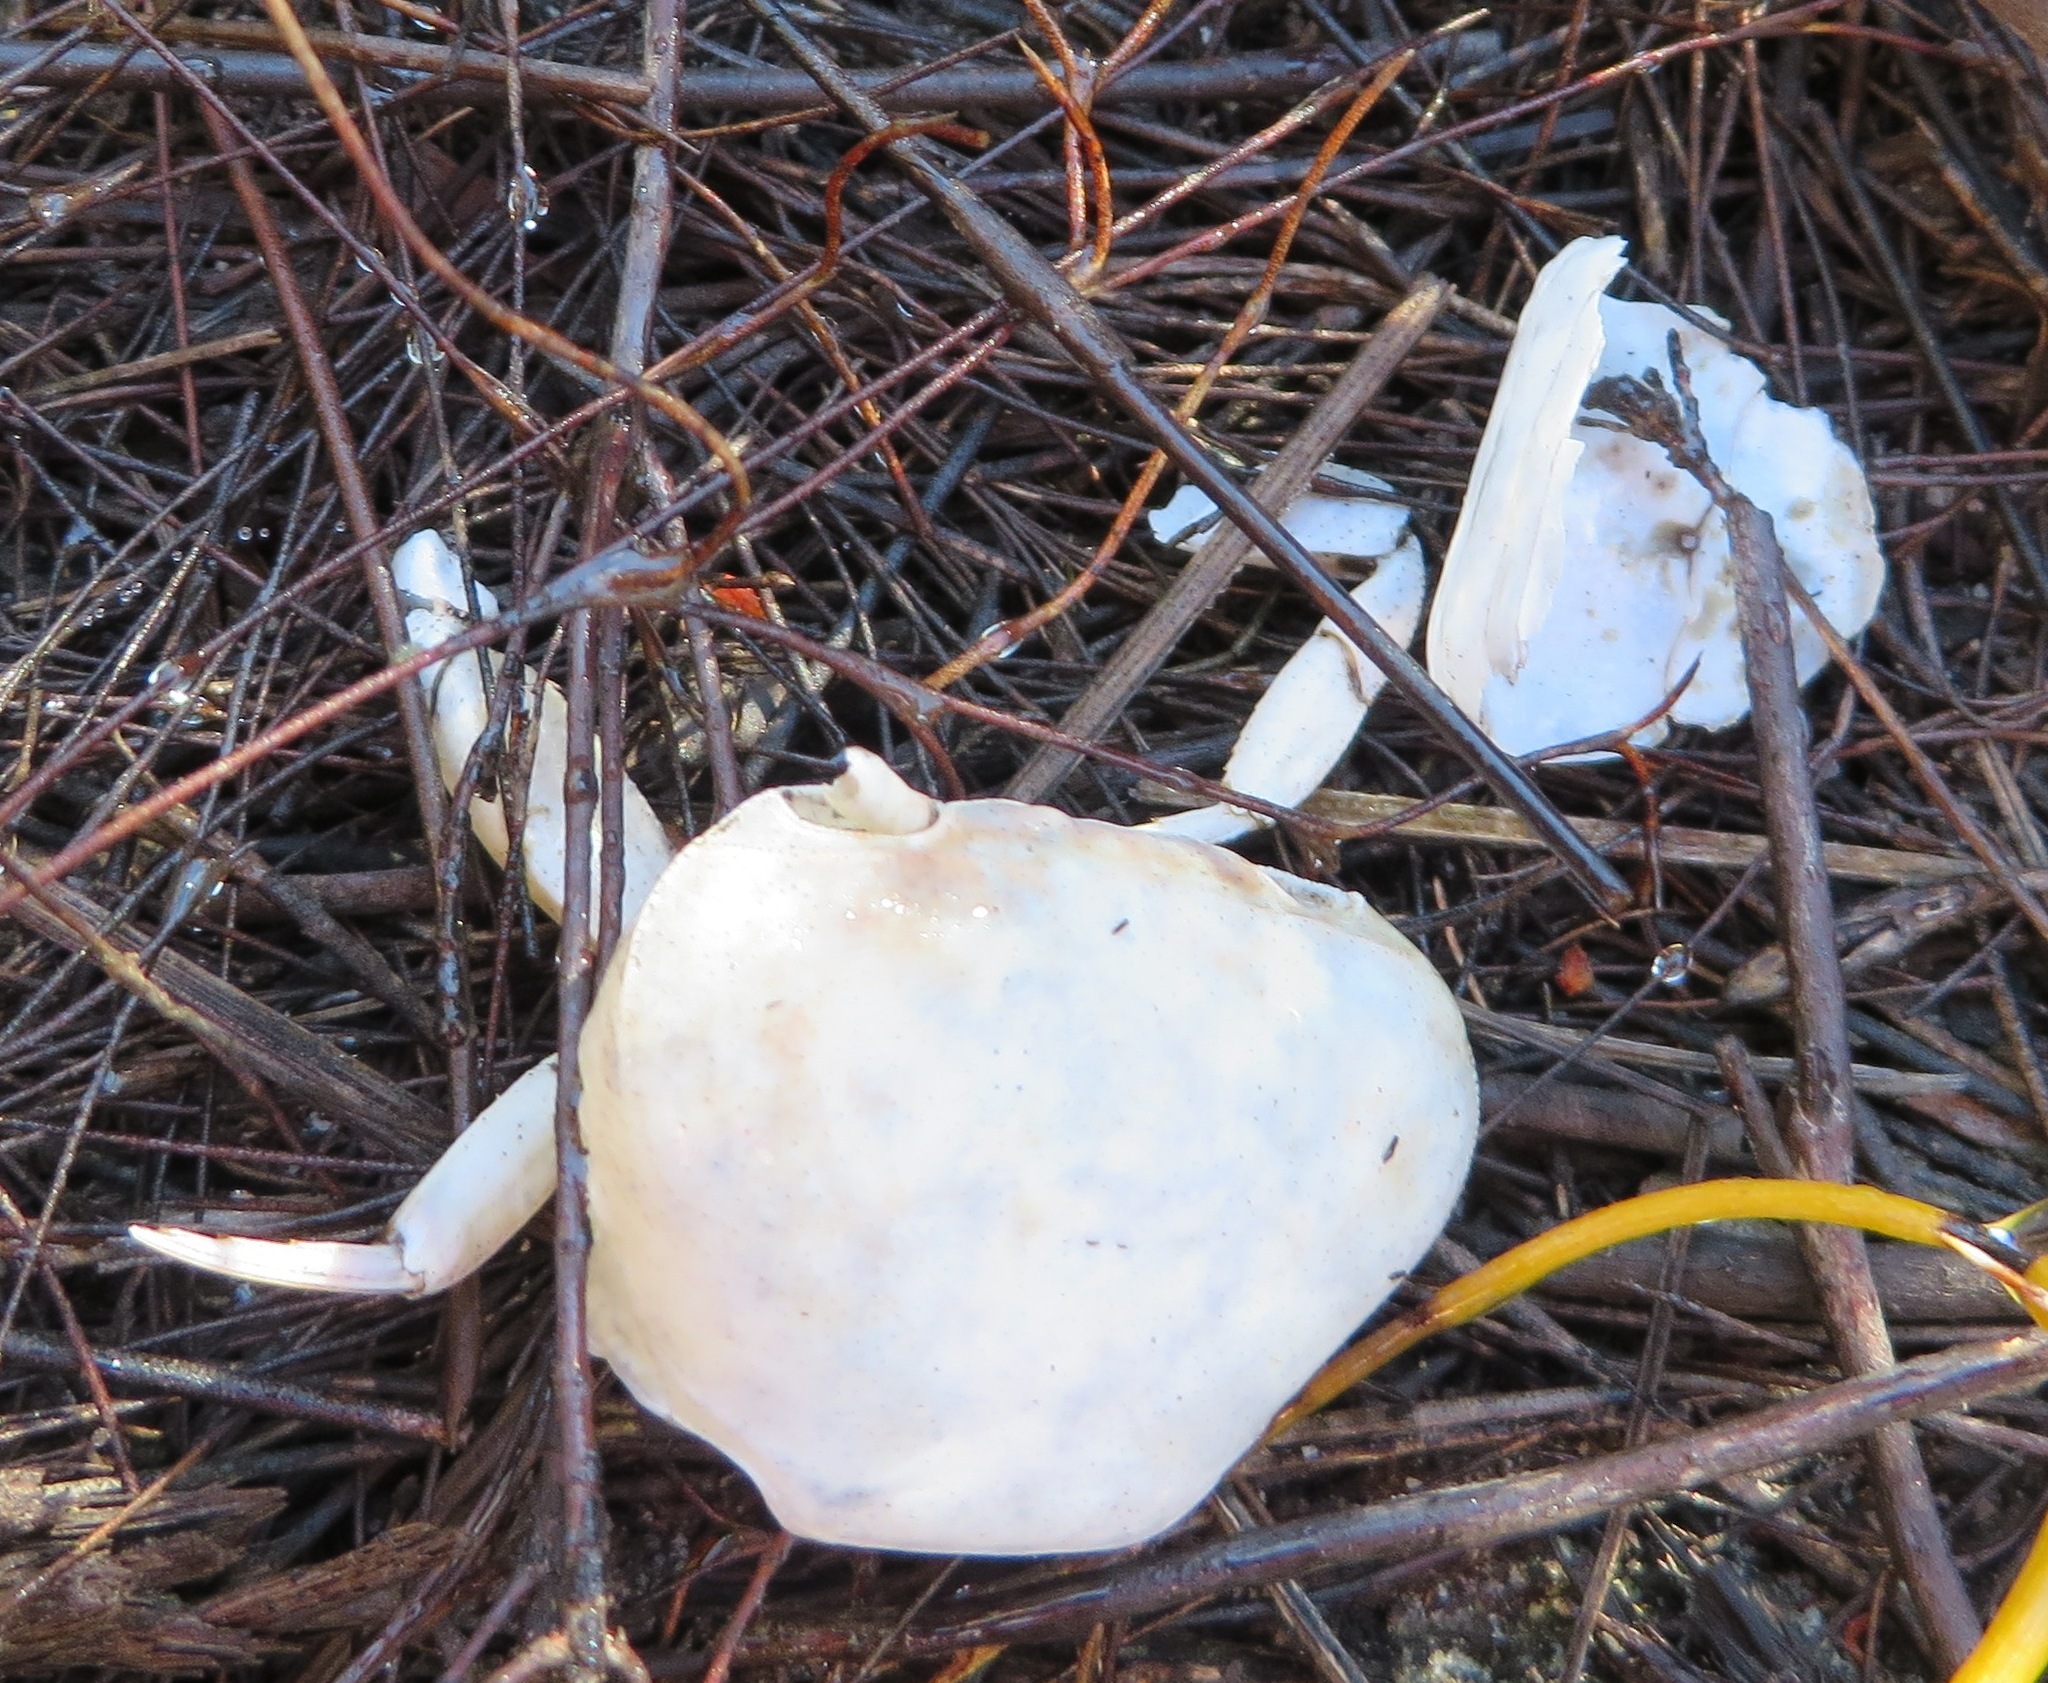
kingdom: Animalia
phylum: Arthropoda
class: Malacostraca
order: Decapoda
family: Potamonautidae
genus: Potamonautes
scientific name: Potamonautes perlatus
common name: Cape river crab
